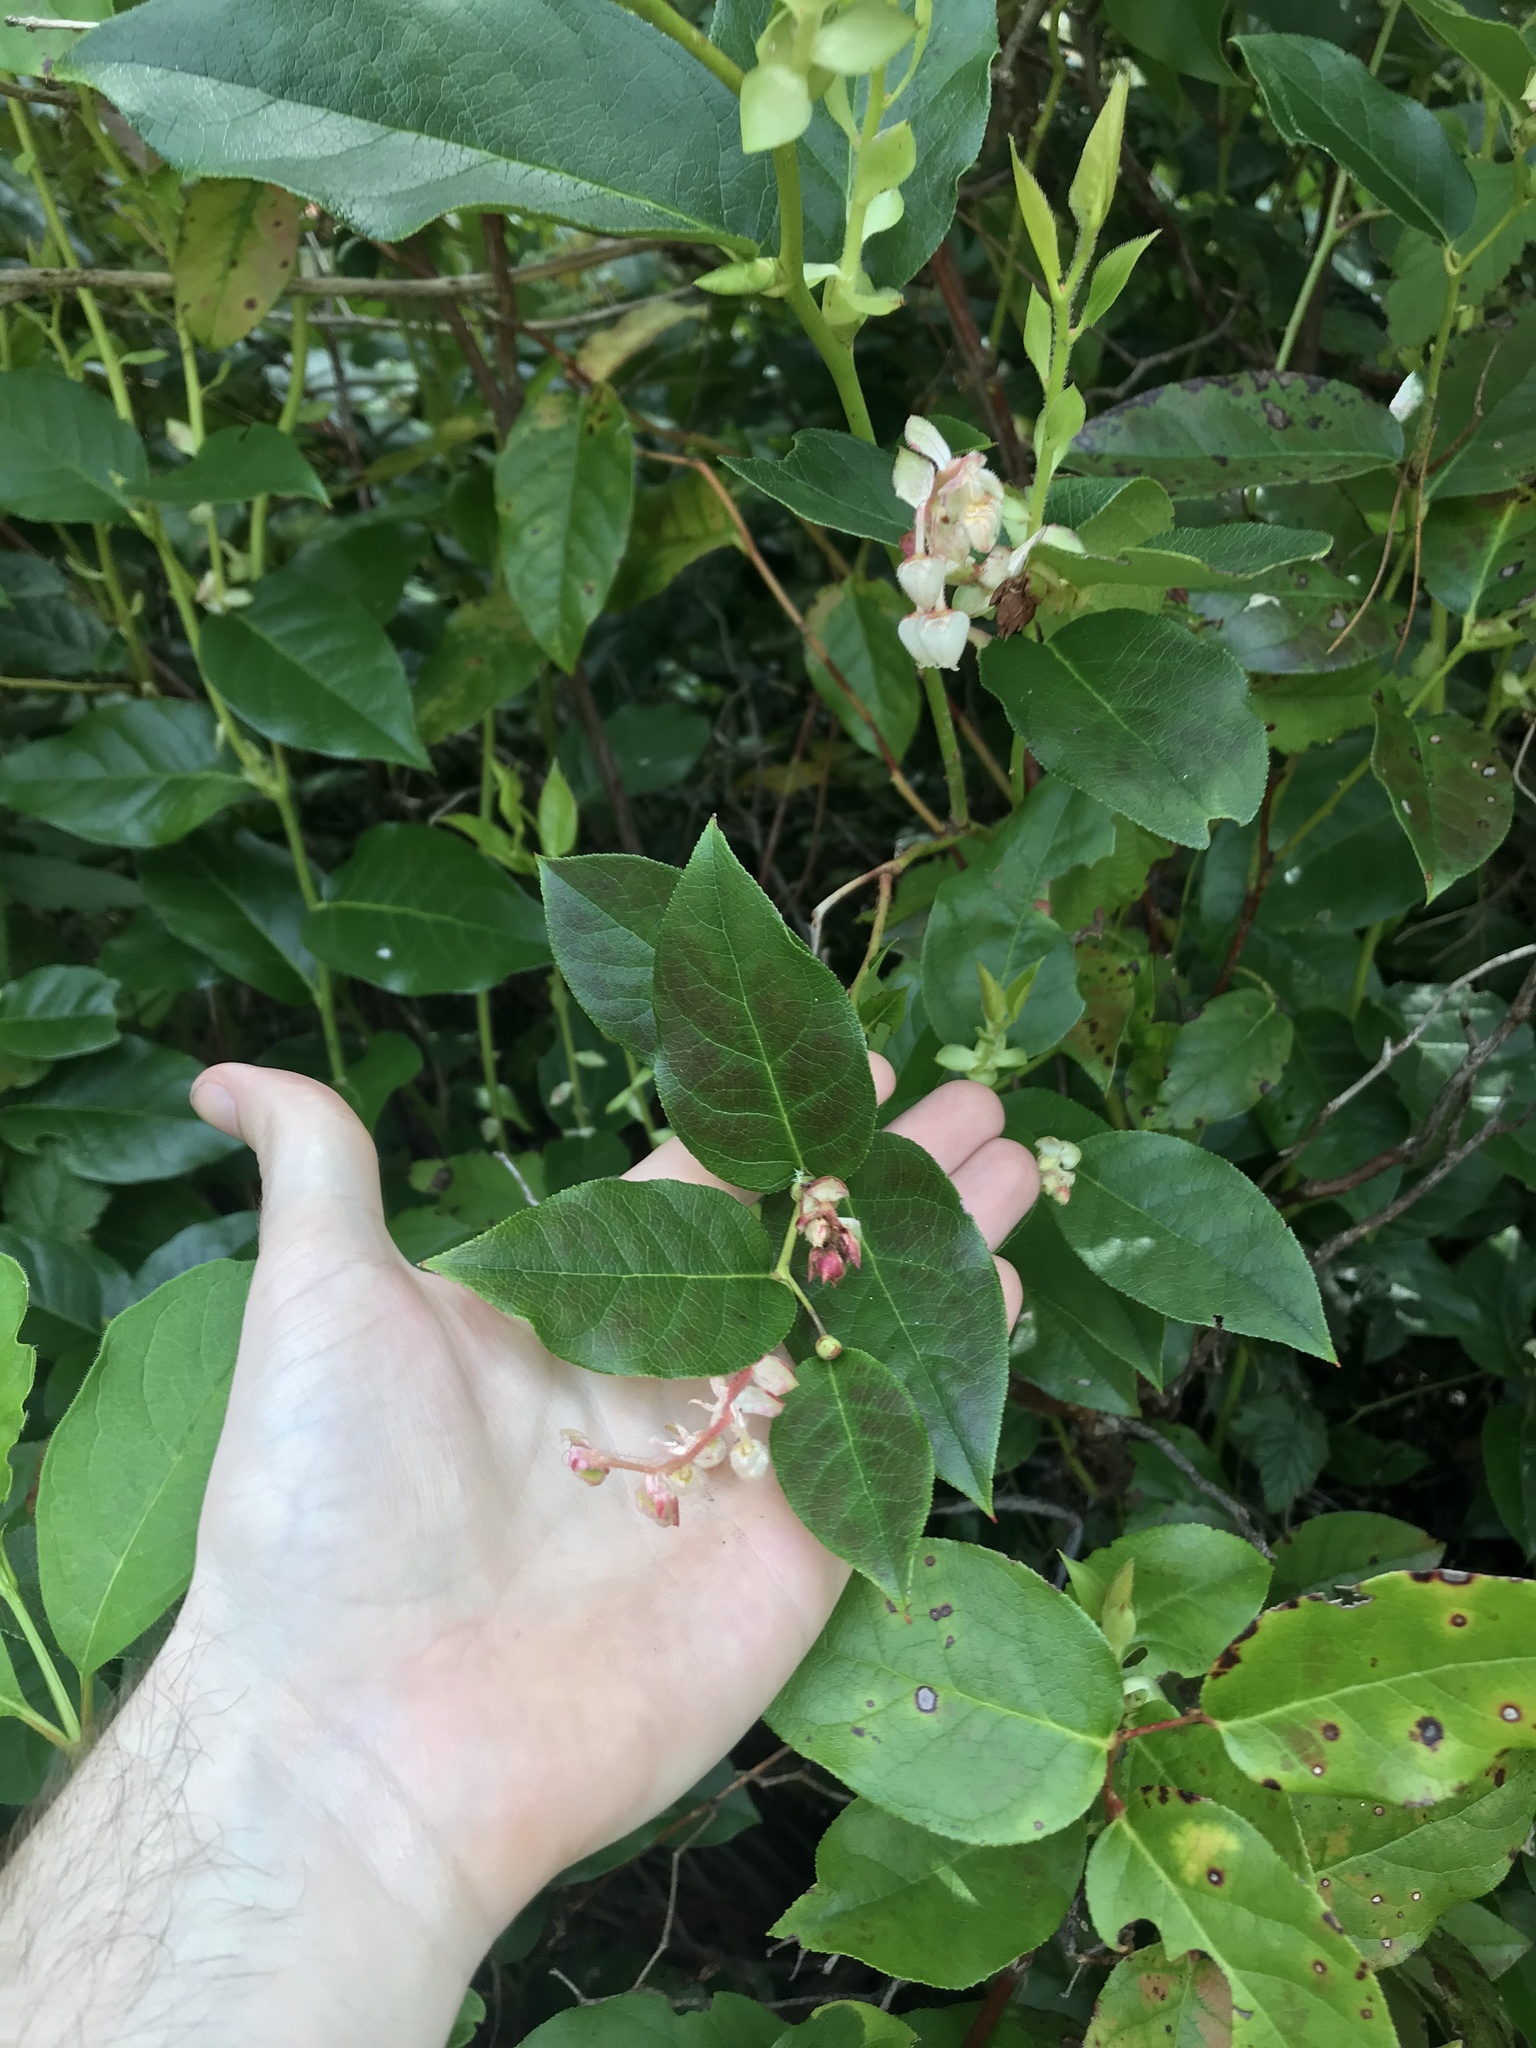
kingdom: Plantae
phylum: Tracheophyta
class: Magnoliopsida
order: Ericales
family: Ericaceae
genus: Gaultheria
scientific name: Gaultheria shallon
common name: Shallon
